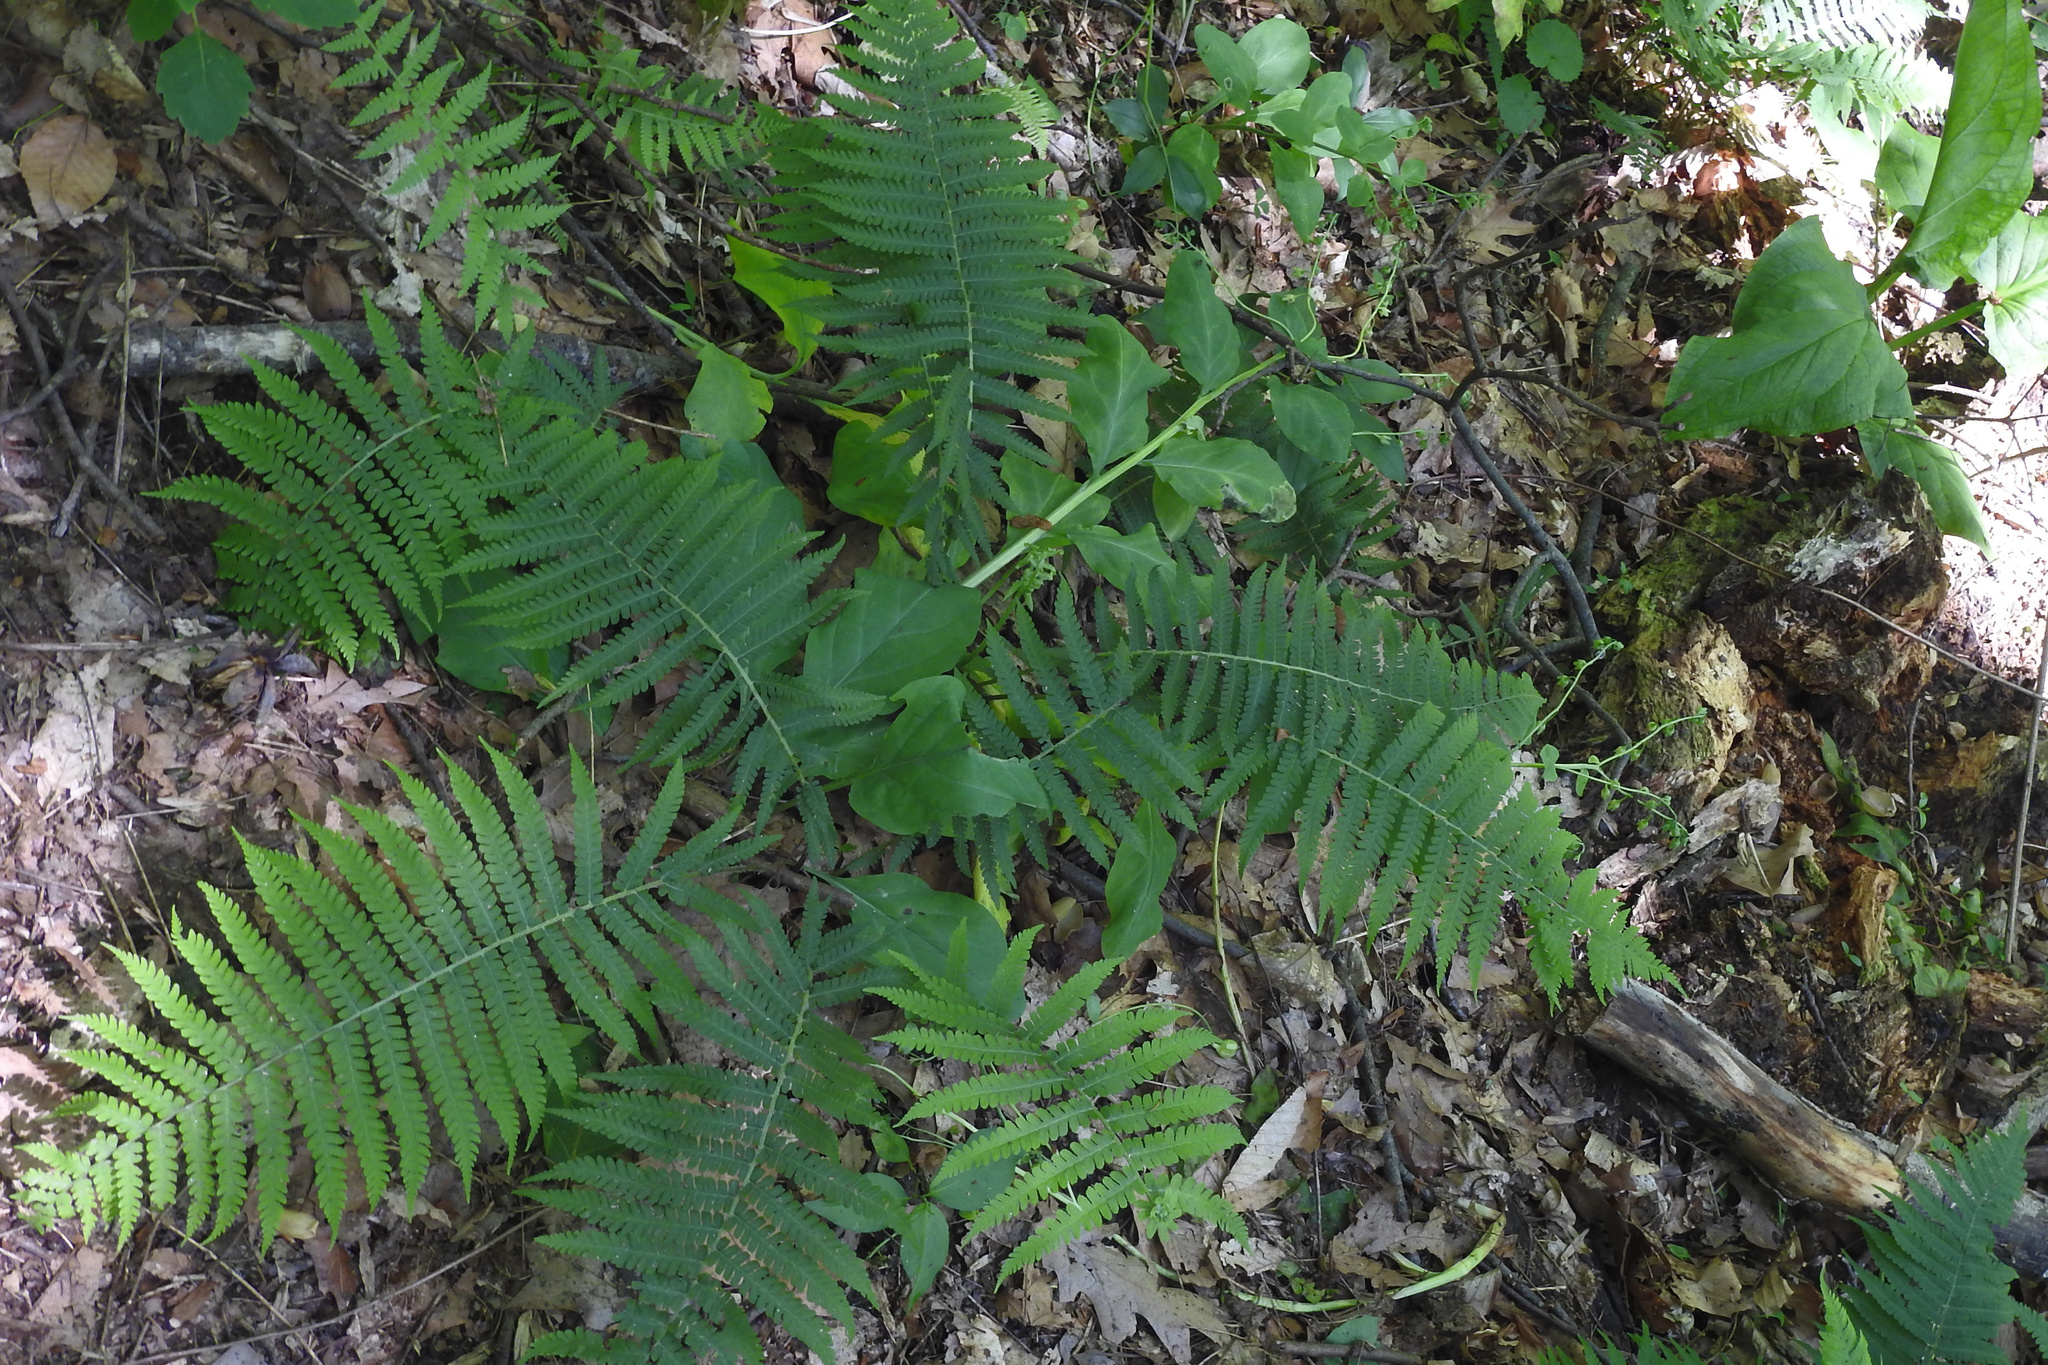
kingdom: Plantae
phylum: Tracheophyta
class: Polypodiopsida
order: Polypodiales
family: Athyriaceae
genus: Deparia
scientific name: Deparia acrostichoides
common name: Silver false spleenwort
